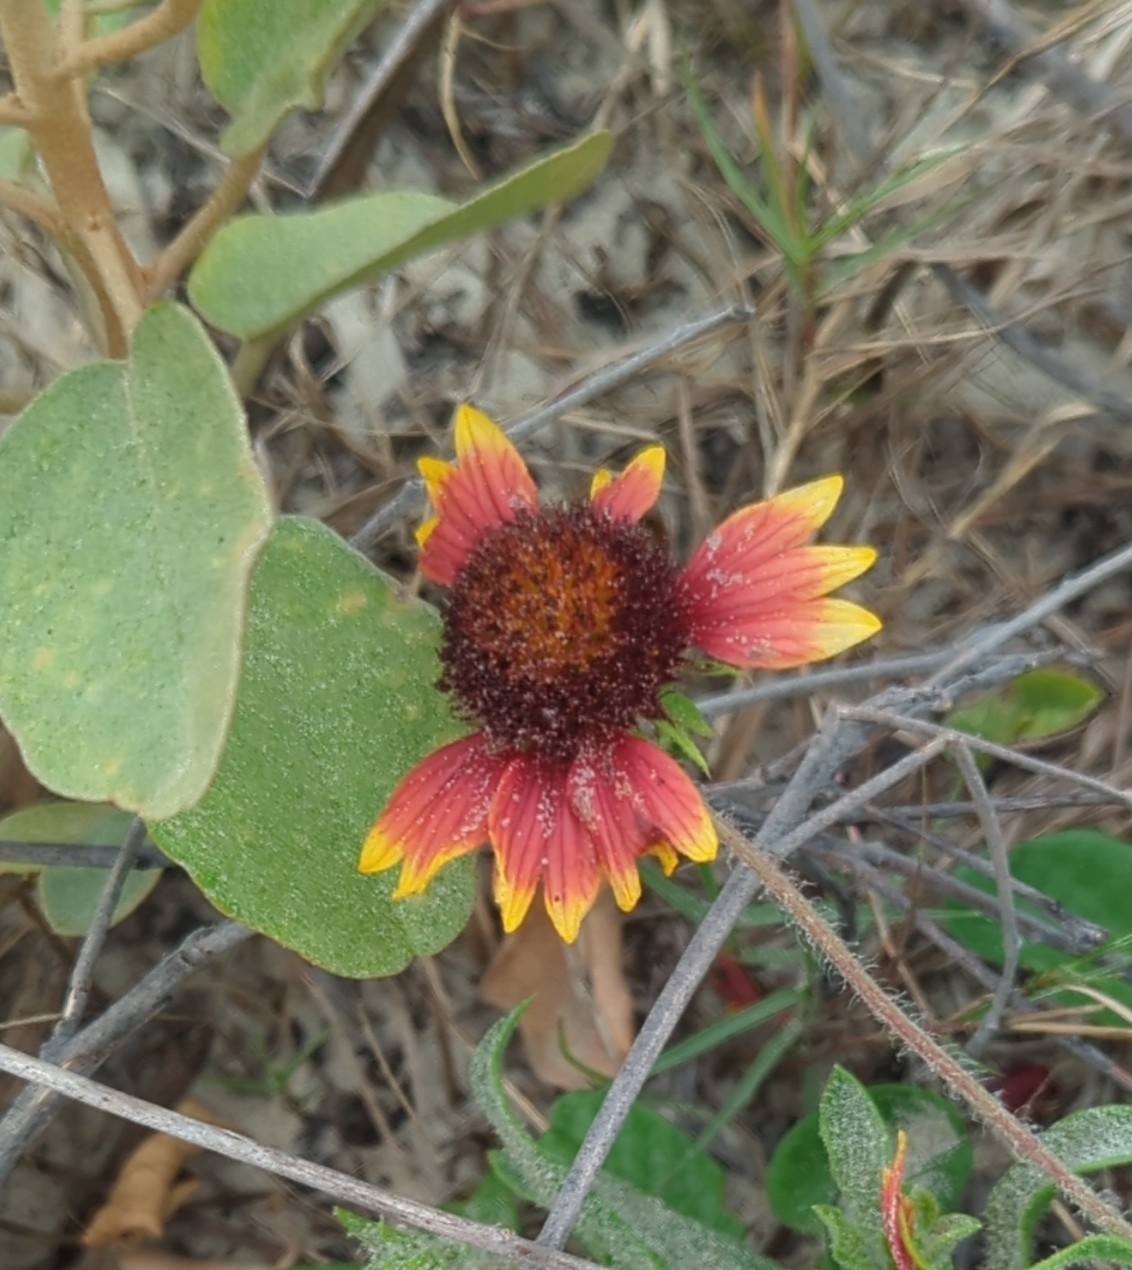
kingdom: Plantae
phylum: Tracheophyta
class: Magnoliopsida
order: Asterales
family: Asteraceae
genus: Gaillardia
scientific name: Gaillardia pulchella
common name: Firewheel
